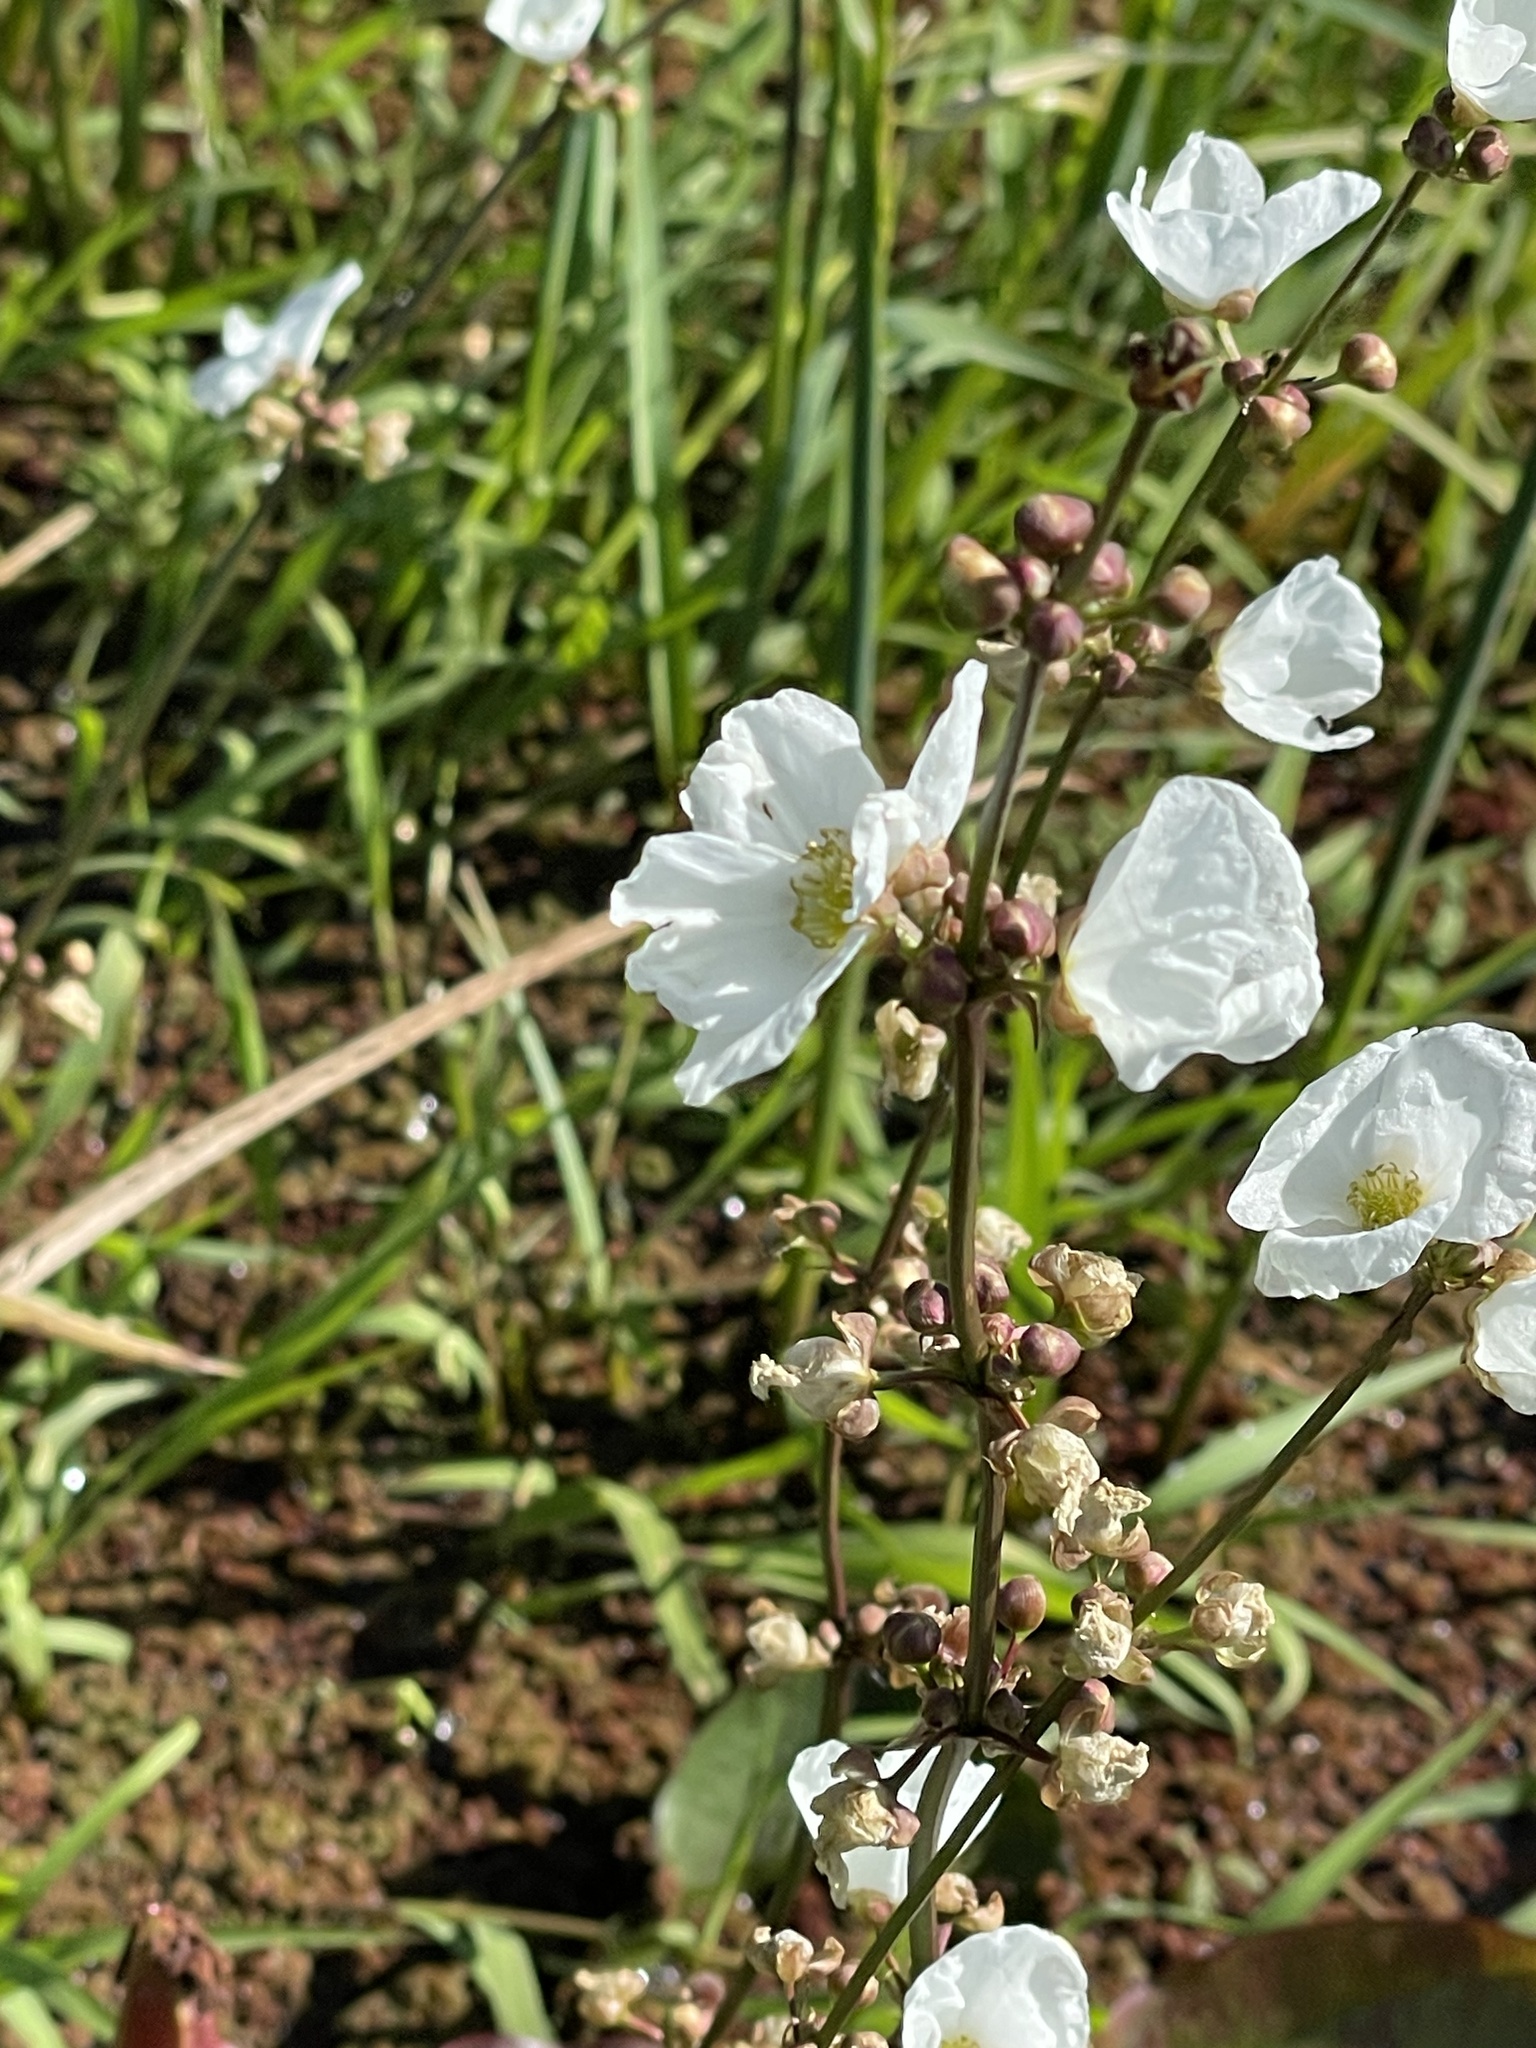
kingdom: Plantae
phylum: Tracheophyta
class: Liliopsida
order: Alismatales
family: Alismataceae
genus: Aquarius
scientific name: Aquarius longiscapus
